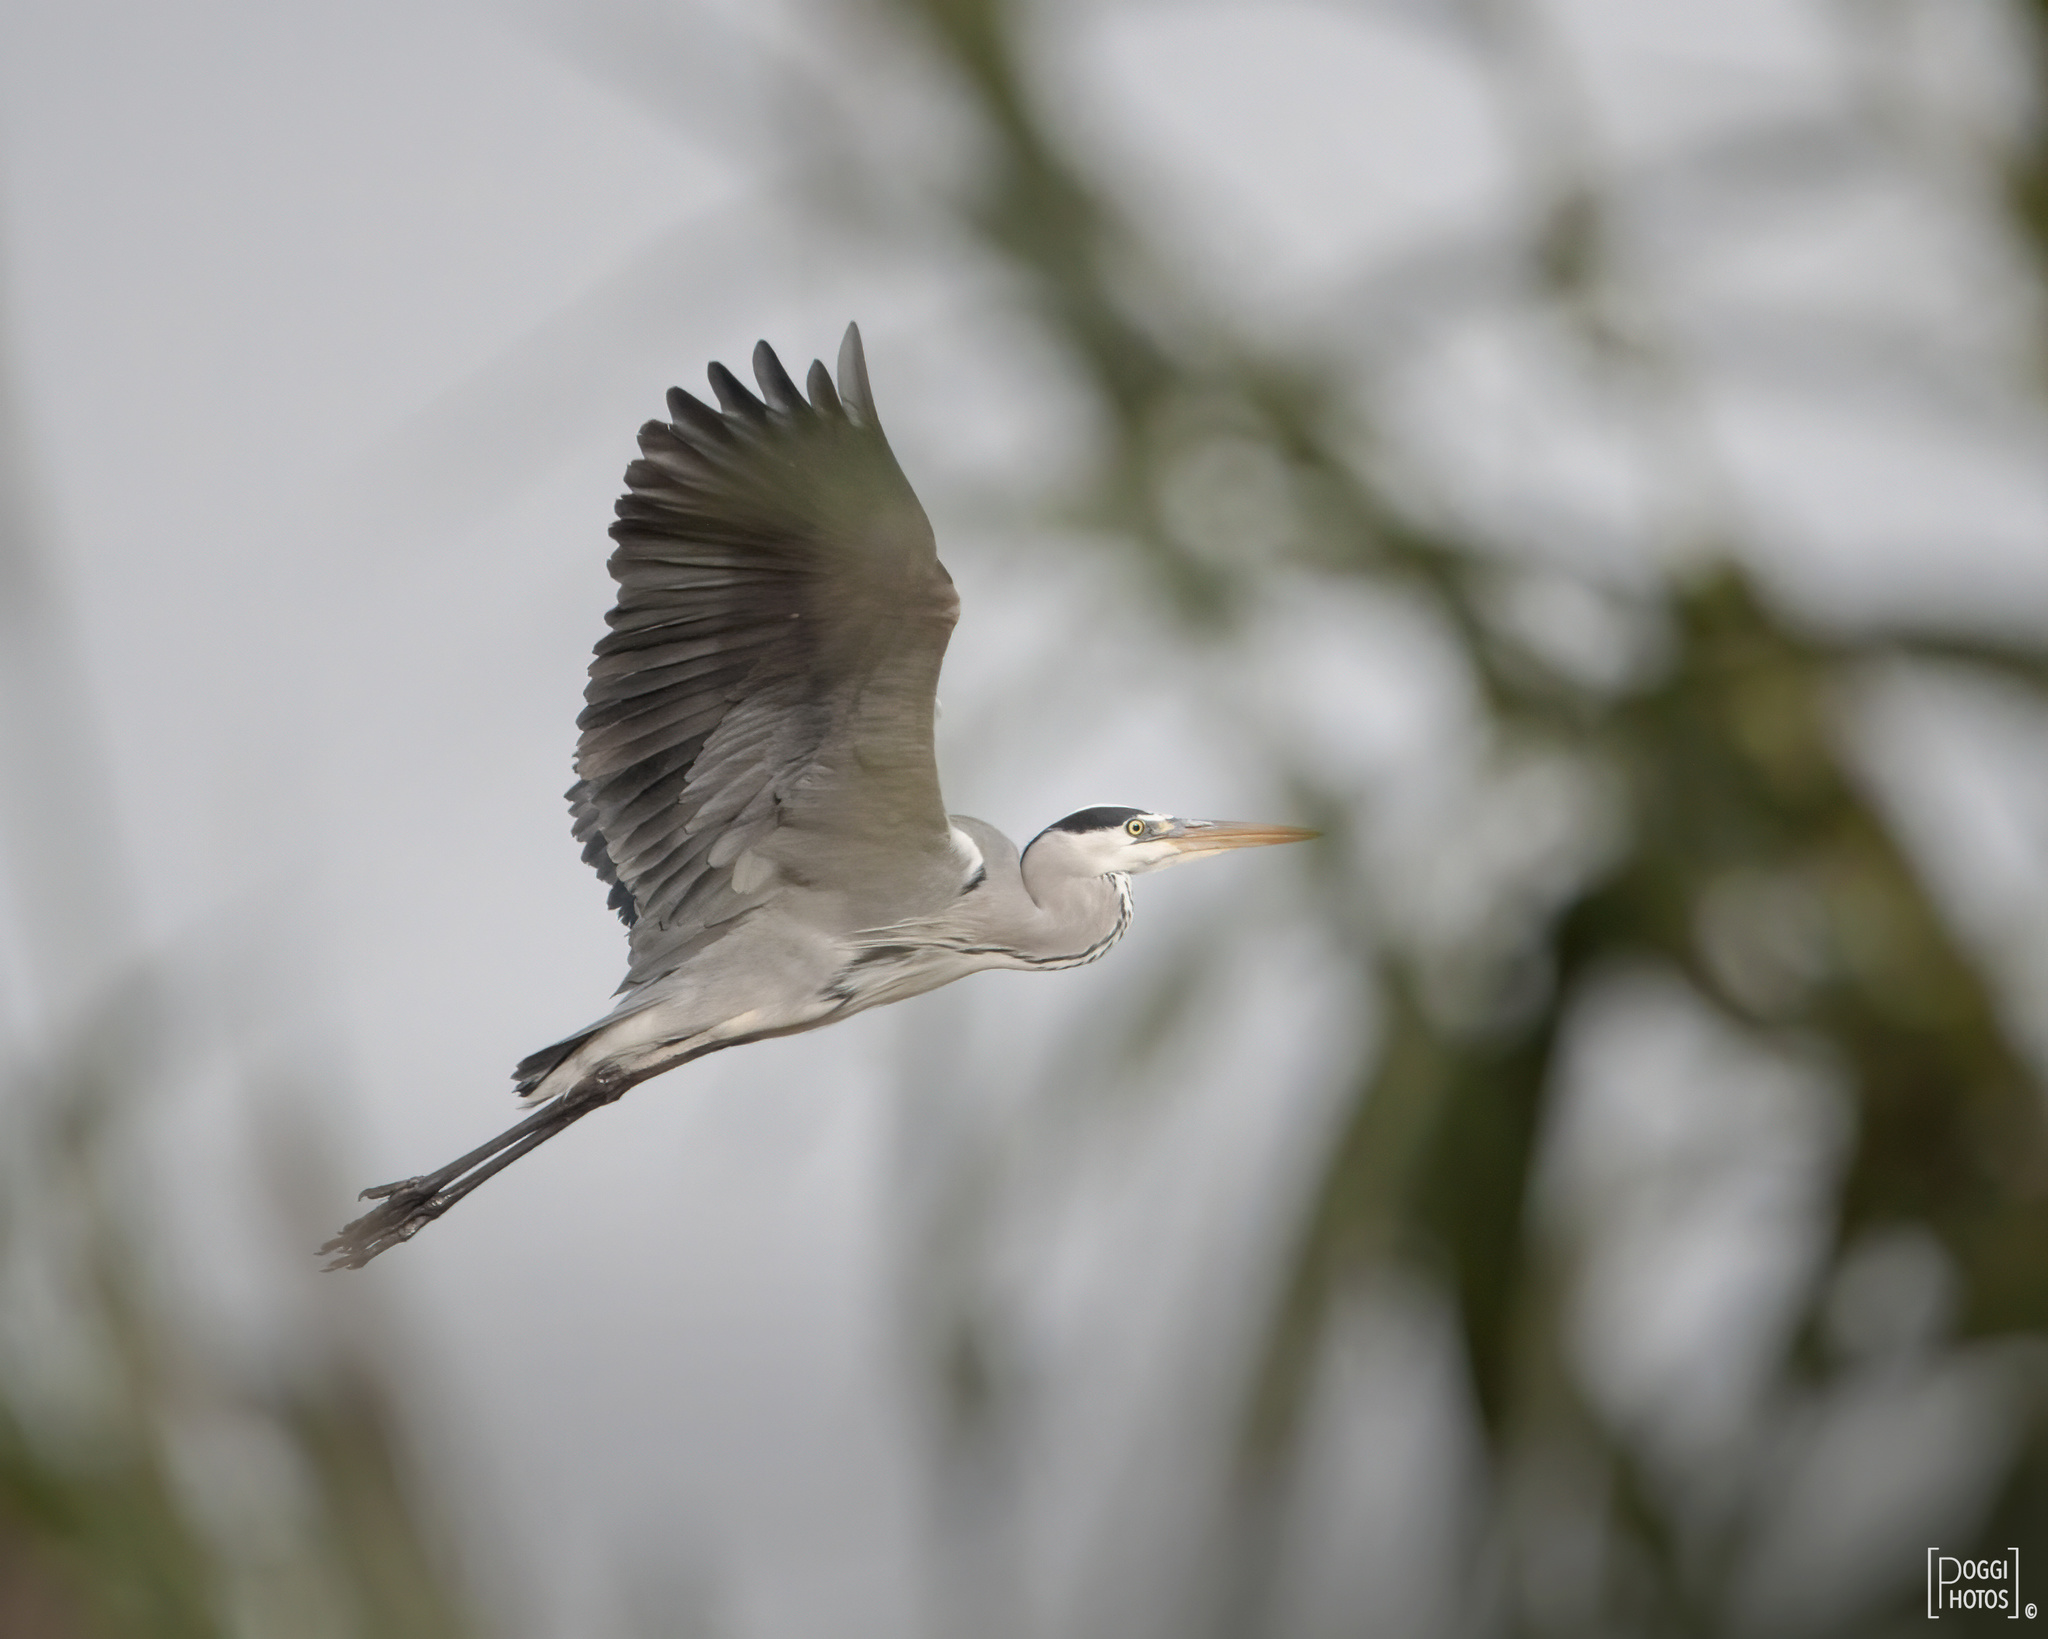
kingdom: Animalia
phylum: Chordata
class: Aves
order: Pelecaniformes
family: Ardeidae
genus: Ardea
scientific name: Ardea cinerea
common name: Grey heron
